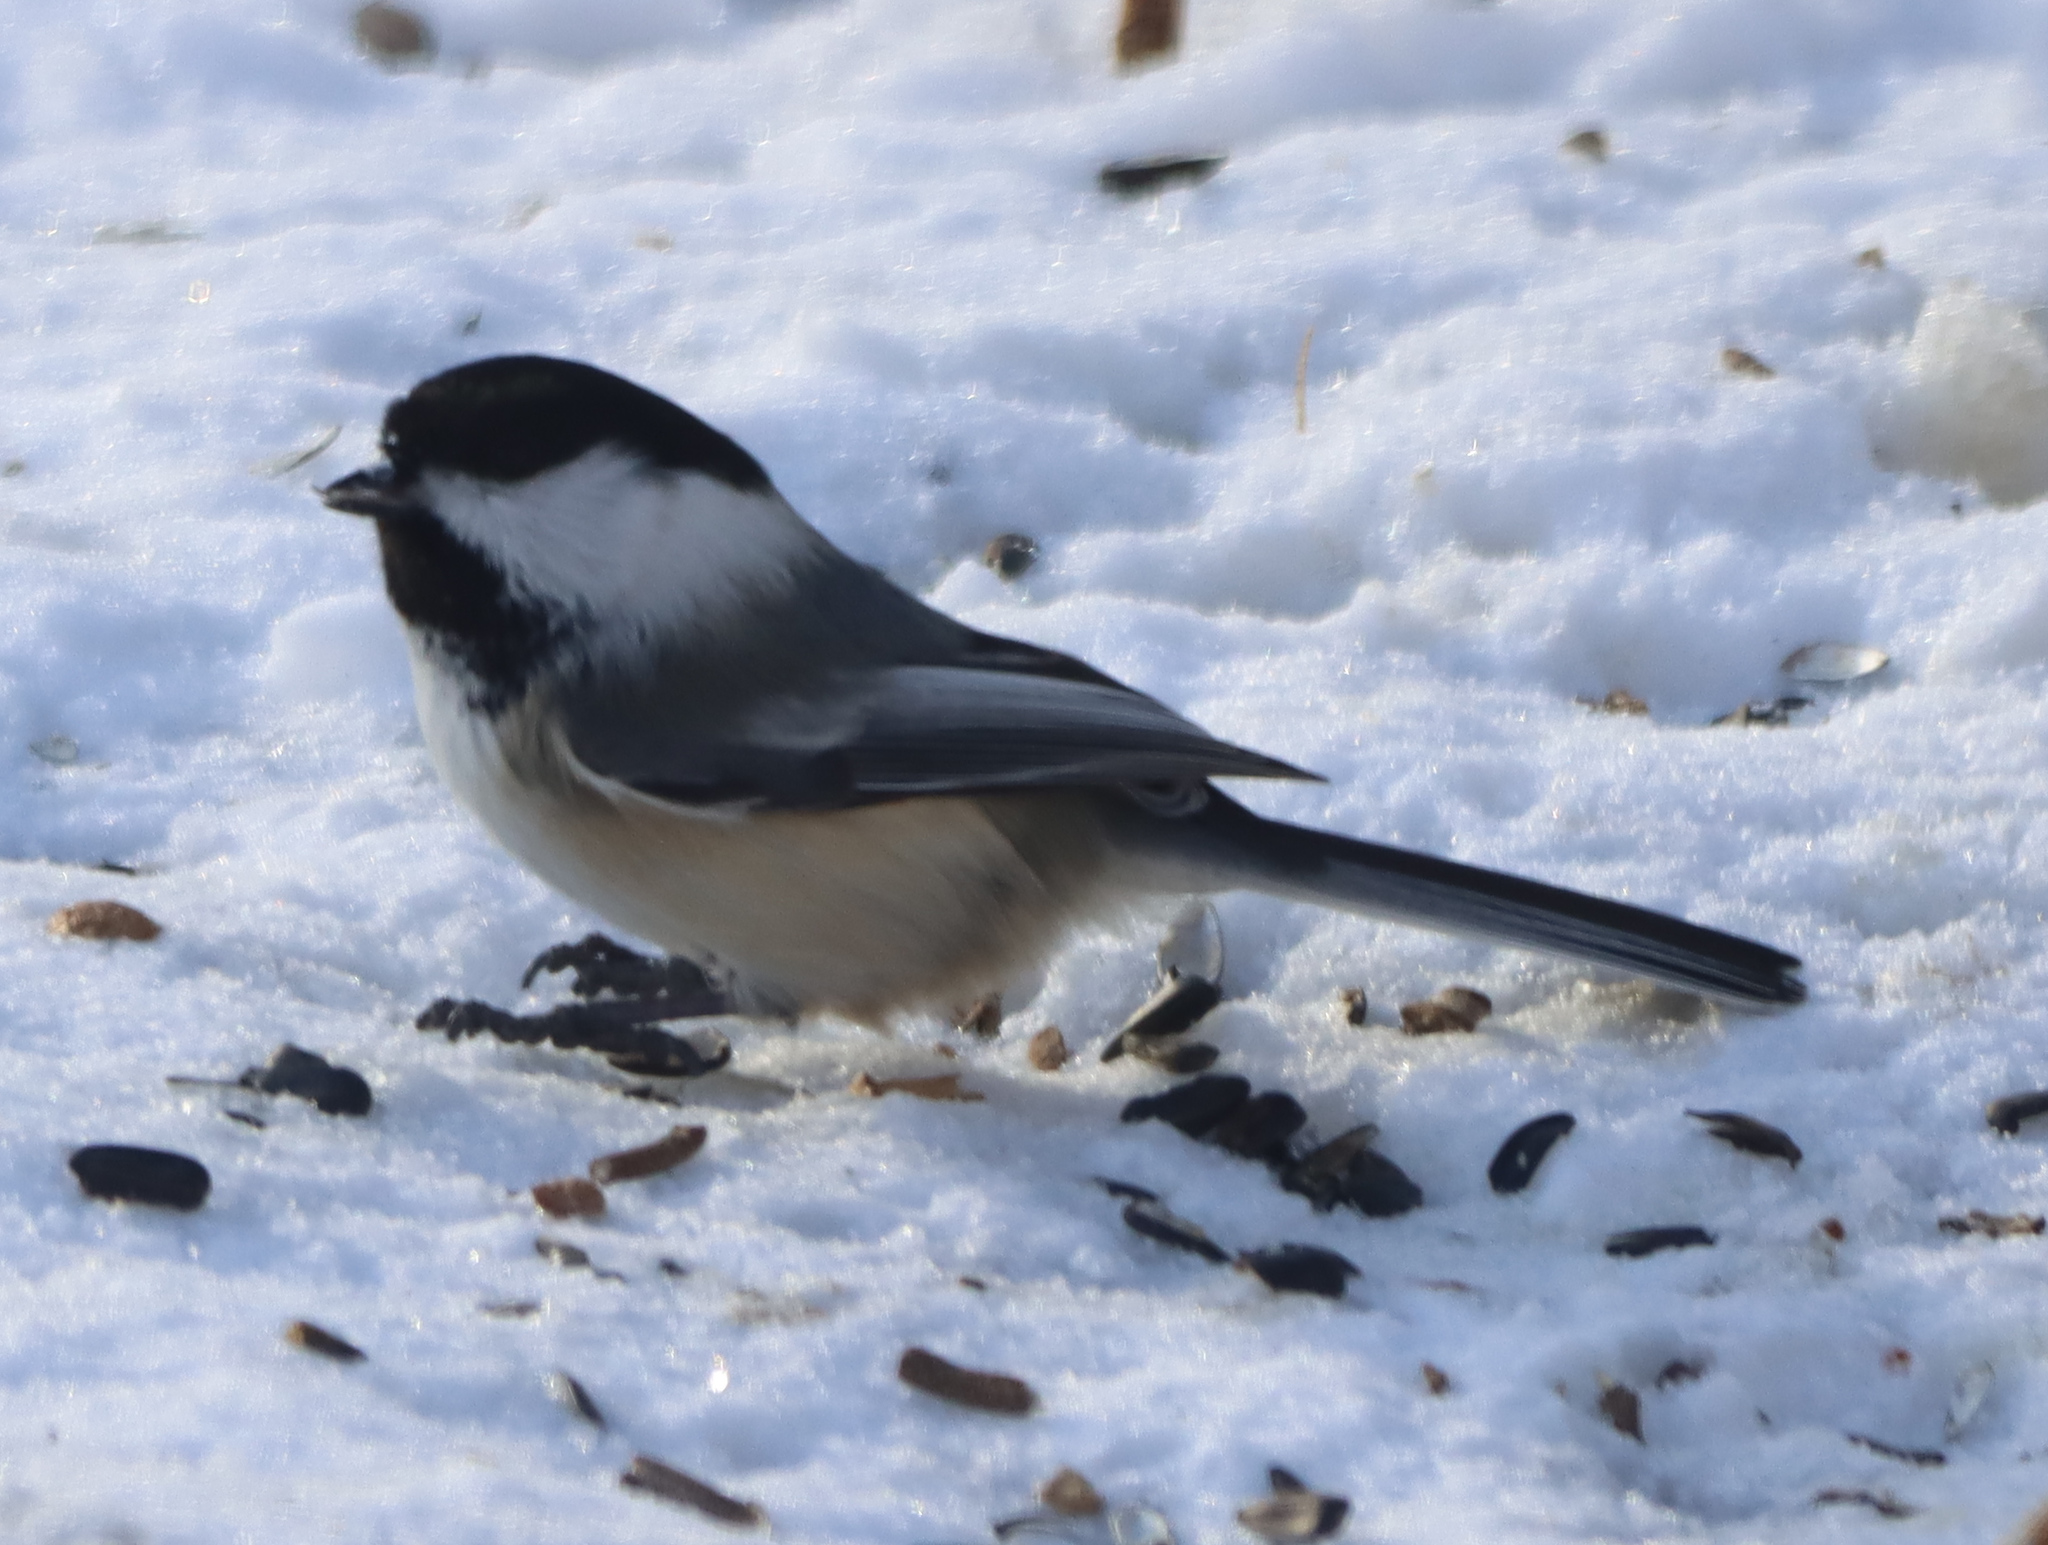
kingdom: Animalia
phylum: Chordata
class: Aves
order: Passeriformes
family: Paridae
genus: Poecile
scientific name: Poecile atricapillus
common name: Black-capped chickadee
